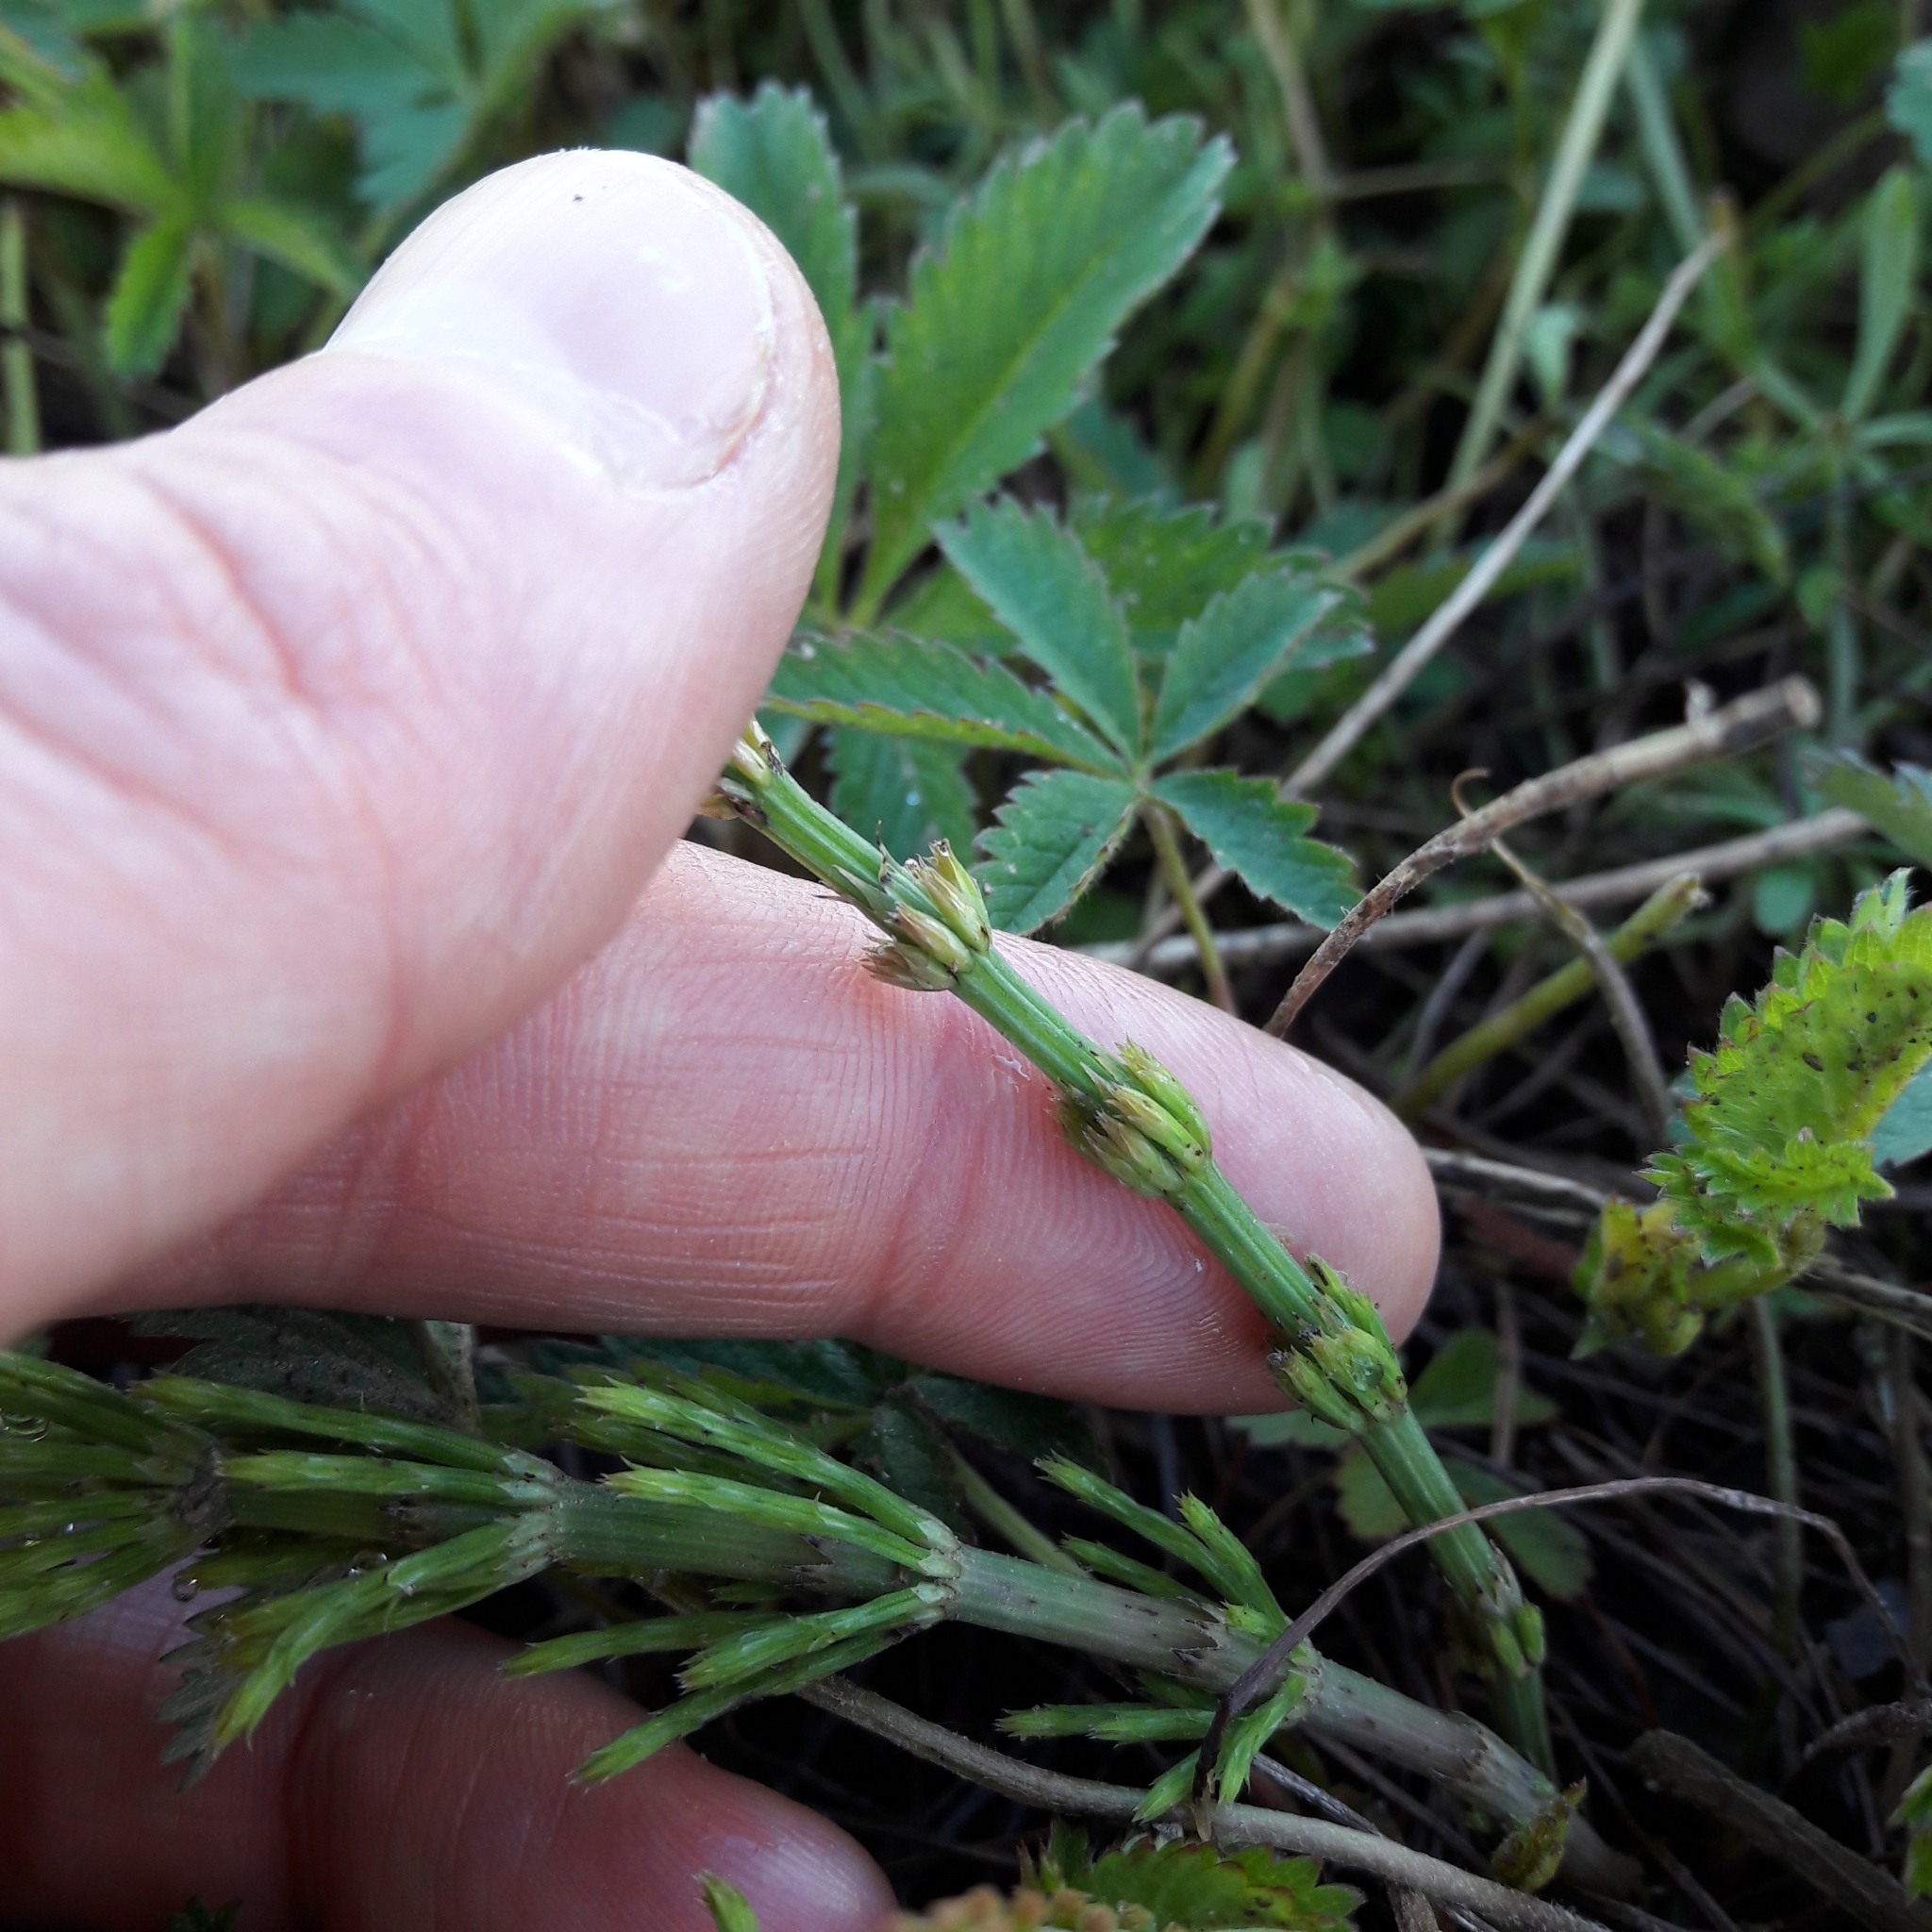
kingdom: Plantae
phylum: Tracheophyta
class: Polypodiopsida
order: Equisetales
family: Equisetaceae
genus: Equisetum
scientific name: Equisetum arvense
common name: Field horsetail
